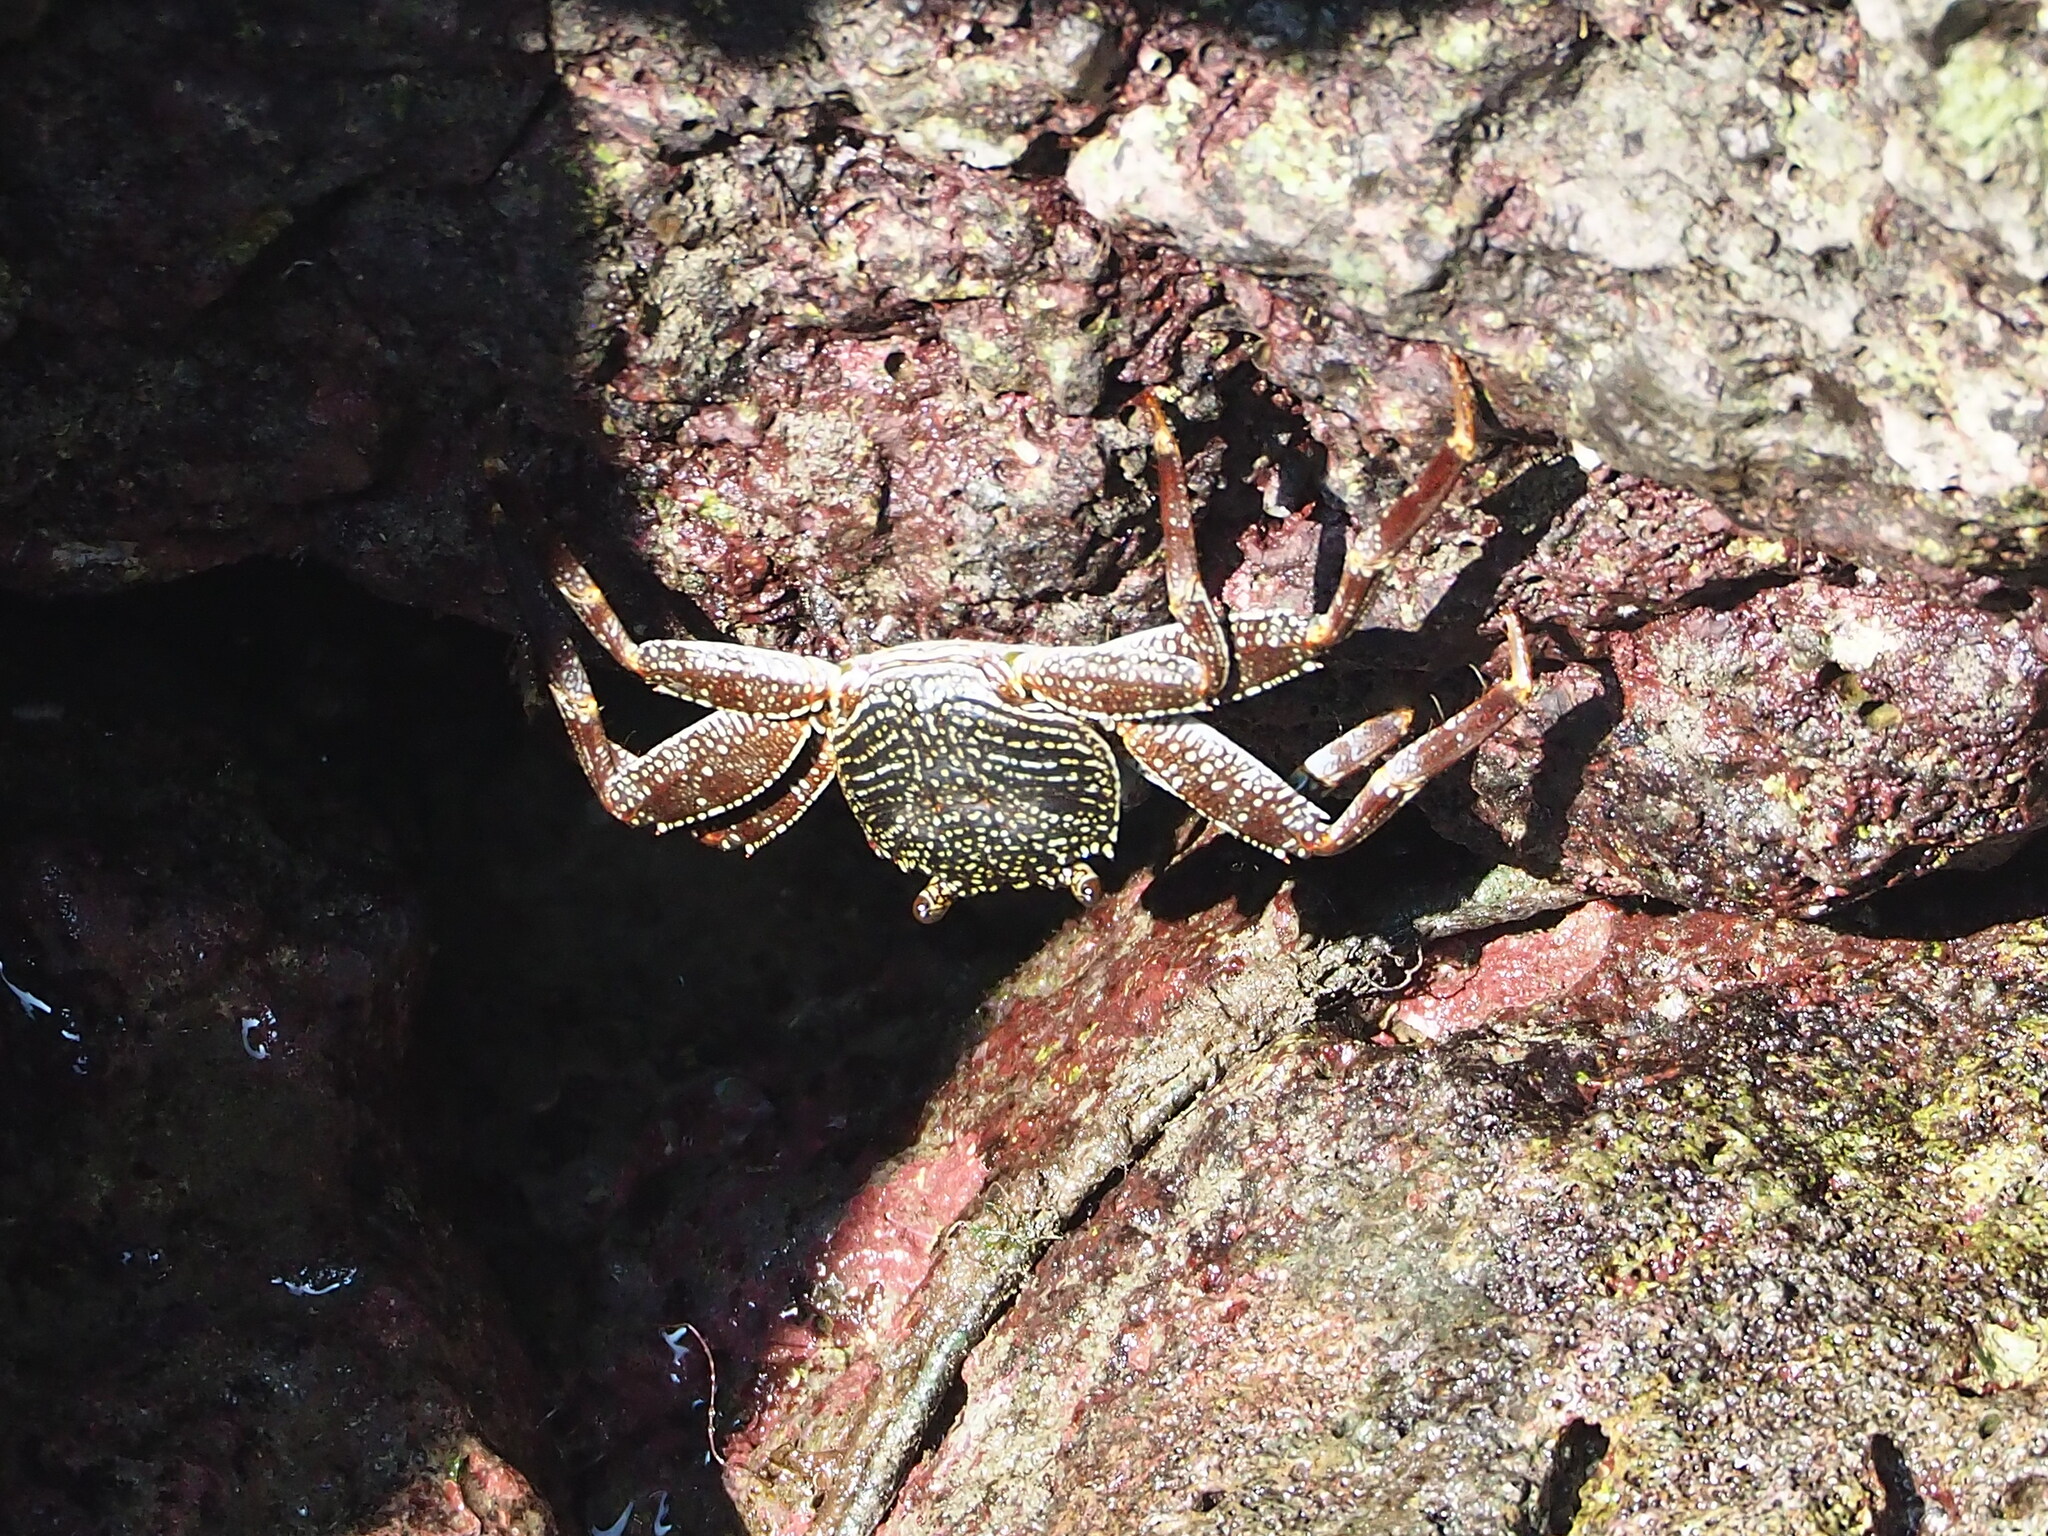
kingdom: Animalia
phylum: Arthropoda
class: Malacostraca
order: Decapoda
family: Grapsidae
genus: Grapsus
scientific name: Grapsus tenuicrustatus
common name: Natal lightfoot crab
